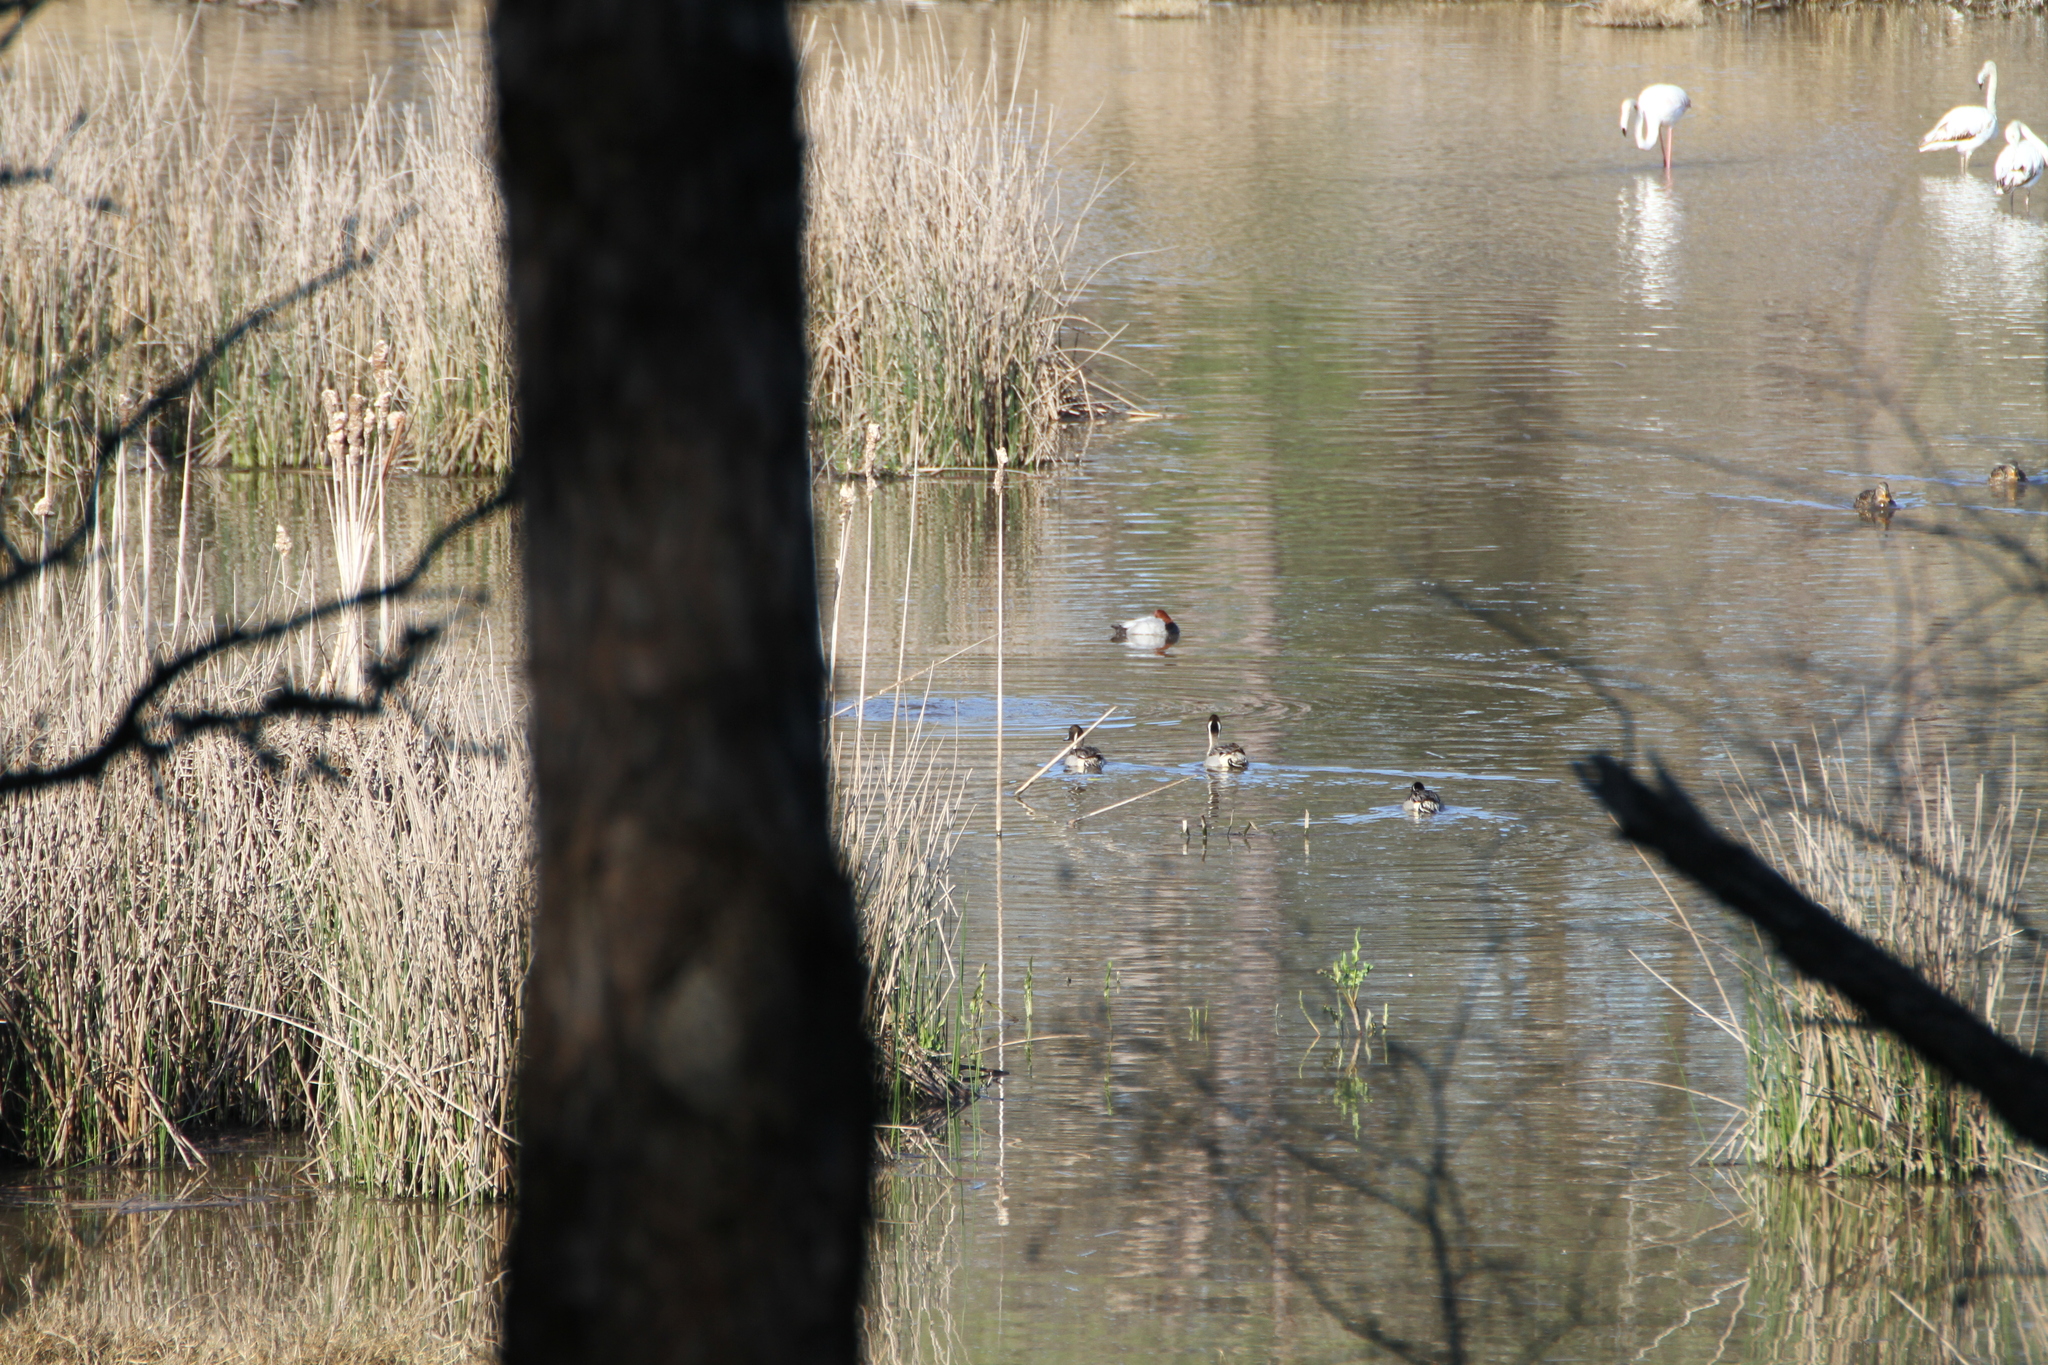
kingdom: Animalia
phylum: Chordata
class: Aves
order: Anseriformes
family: Anatidae
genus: Anas
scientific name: Anas acuta
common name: Northern pintail
